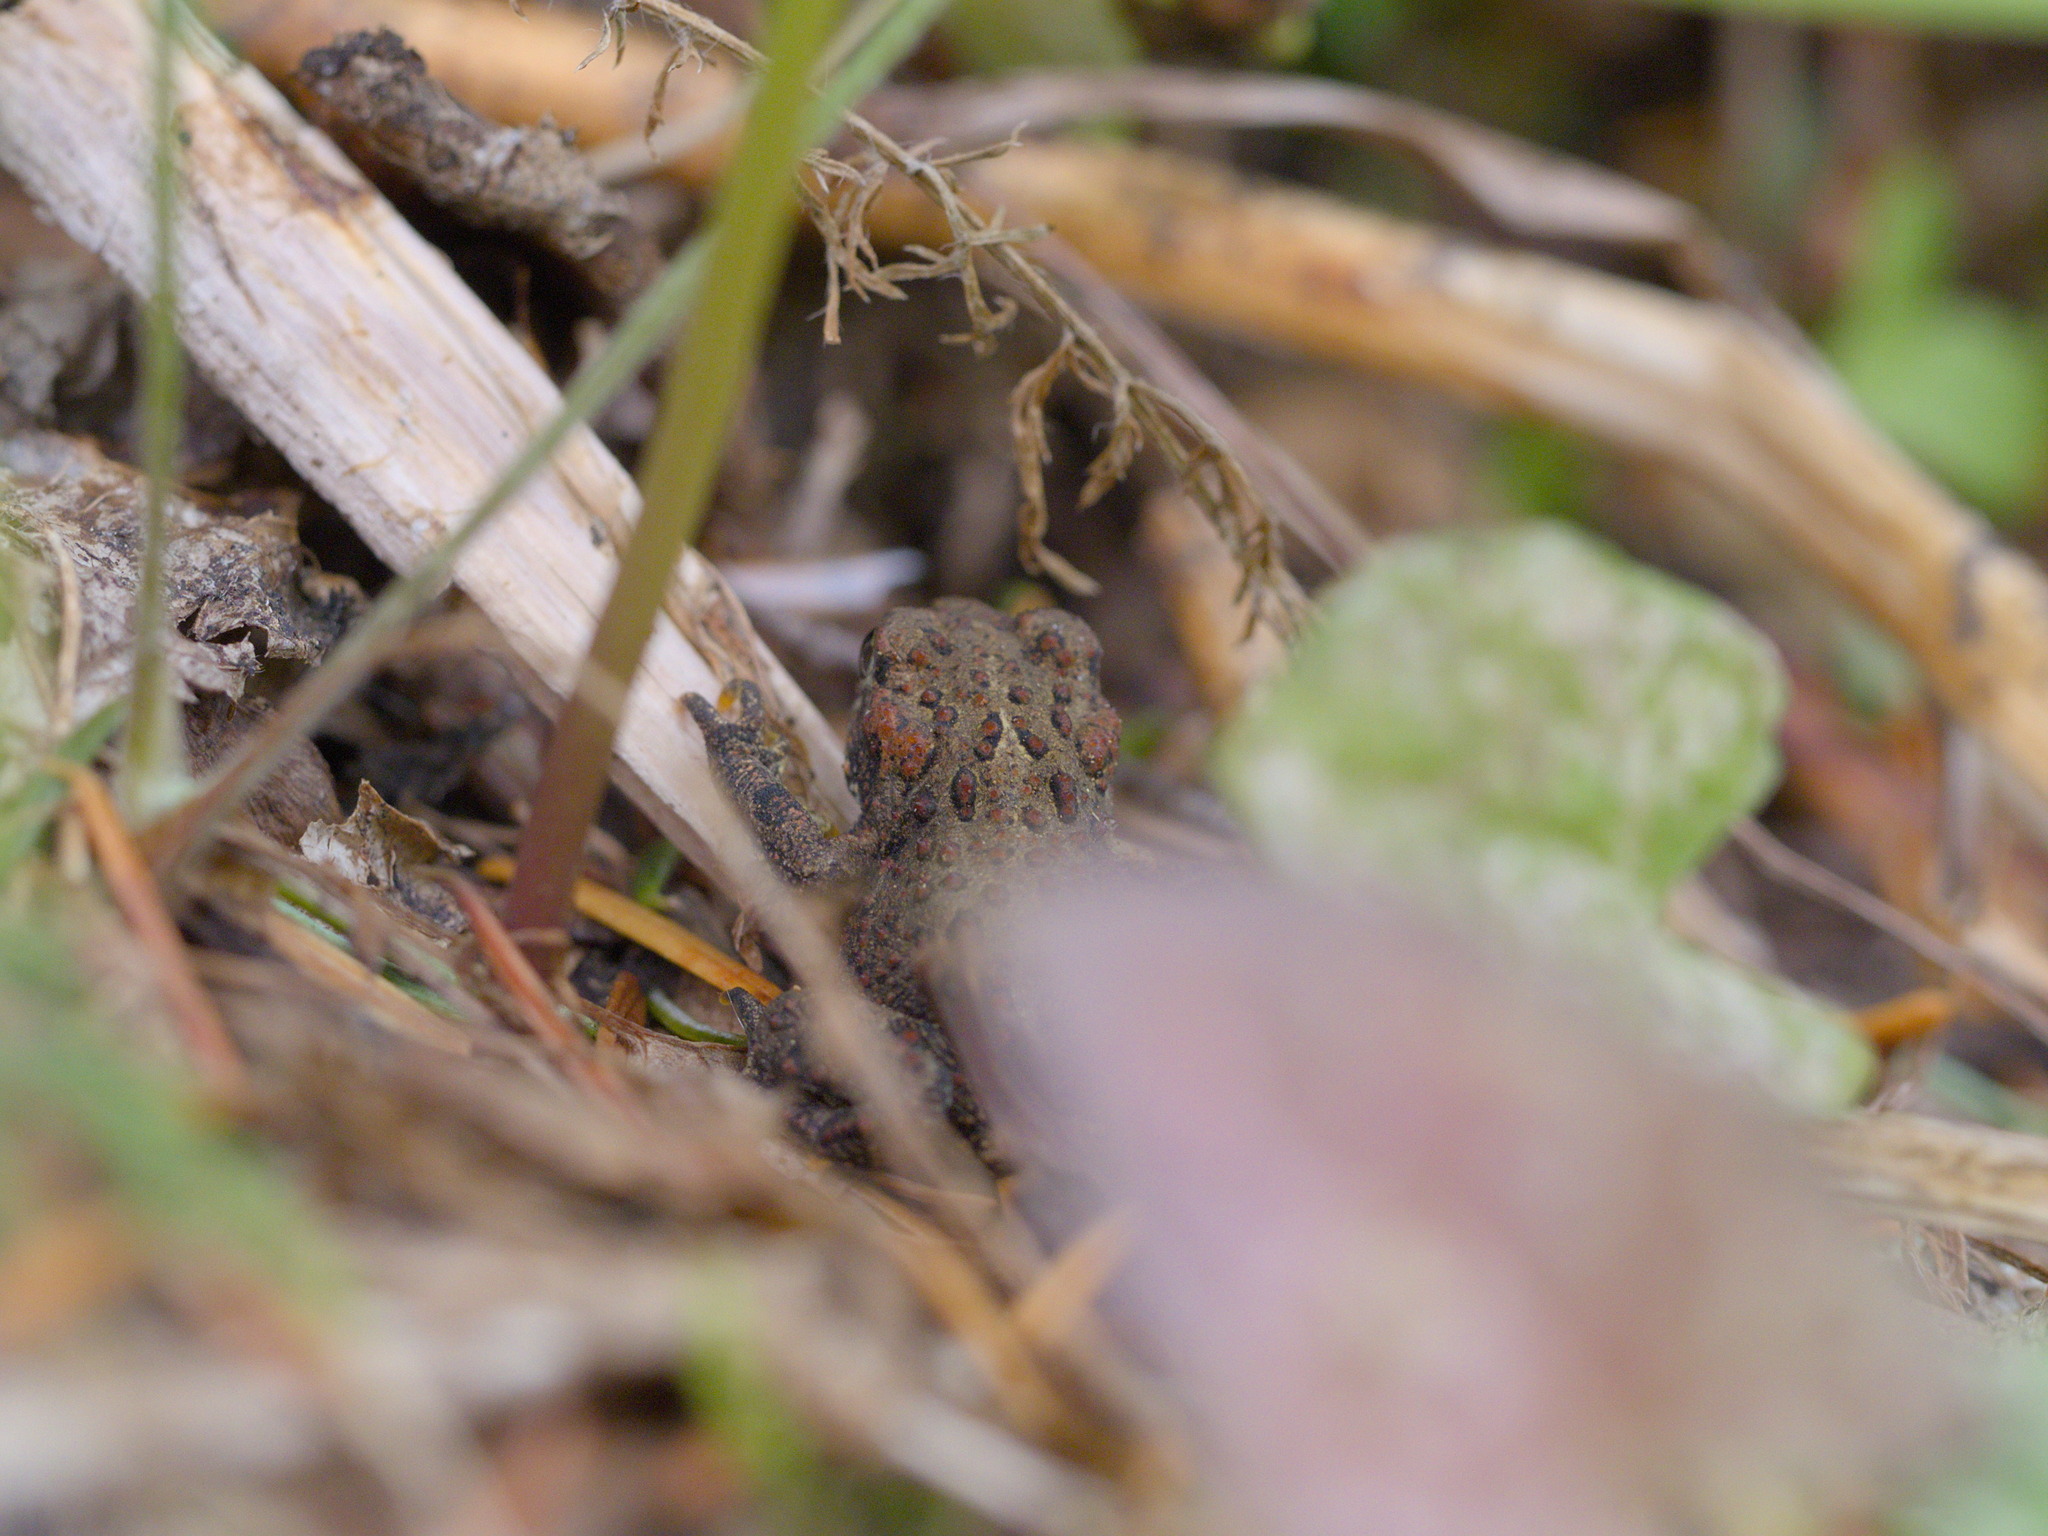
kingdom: Animalia
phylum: Chordata
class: Amphibia
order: Anura
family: Bufonidae
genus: Anaxyrus
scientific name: Anaxyrus boreas
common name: Western toad
